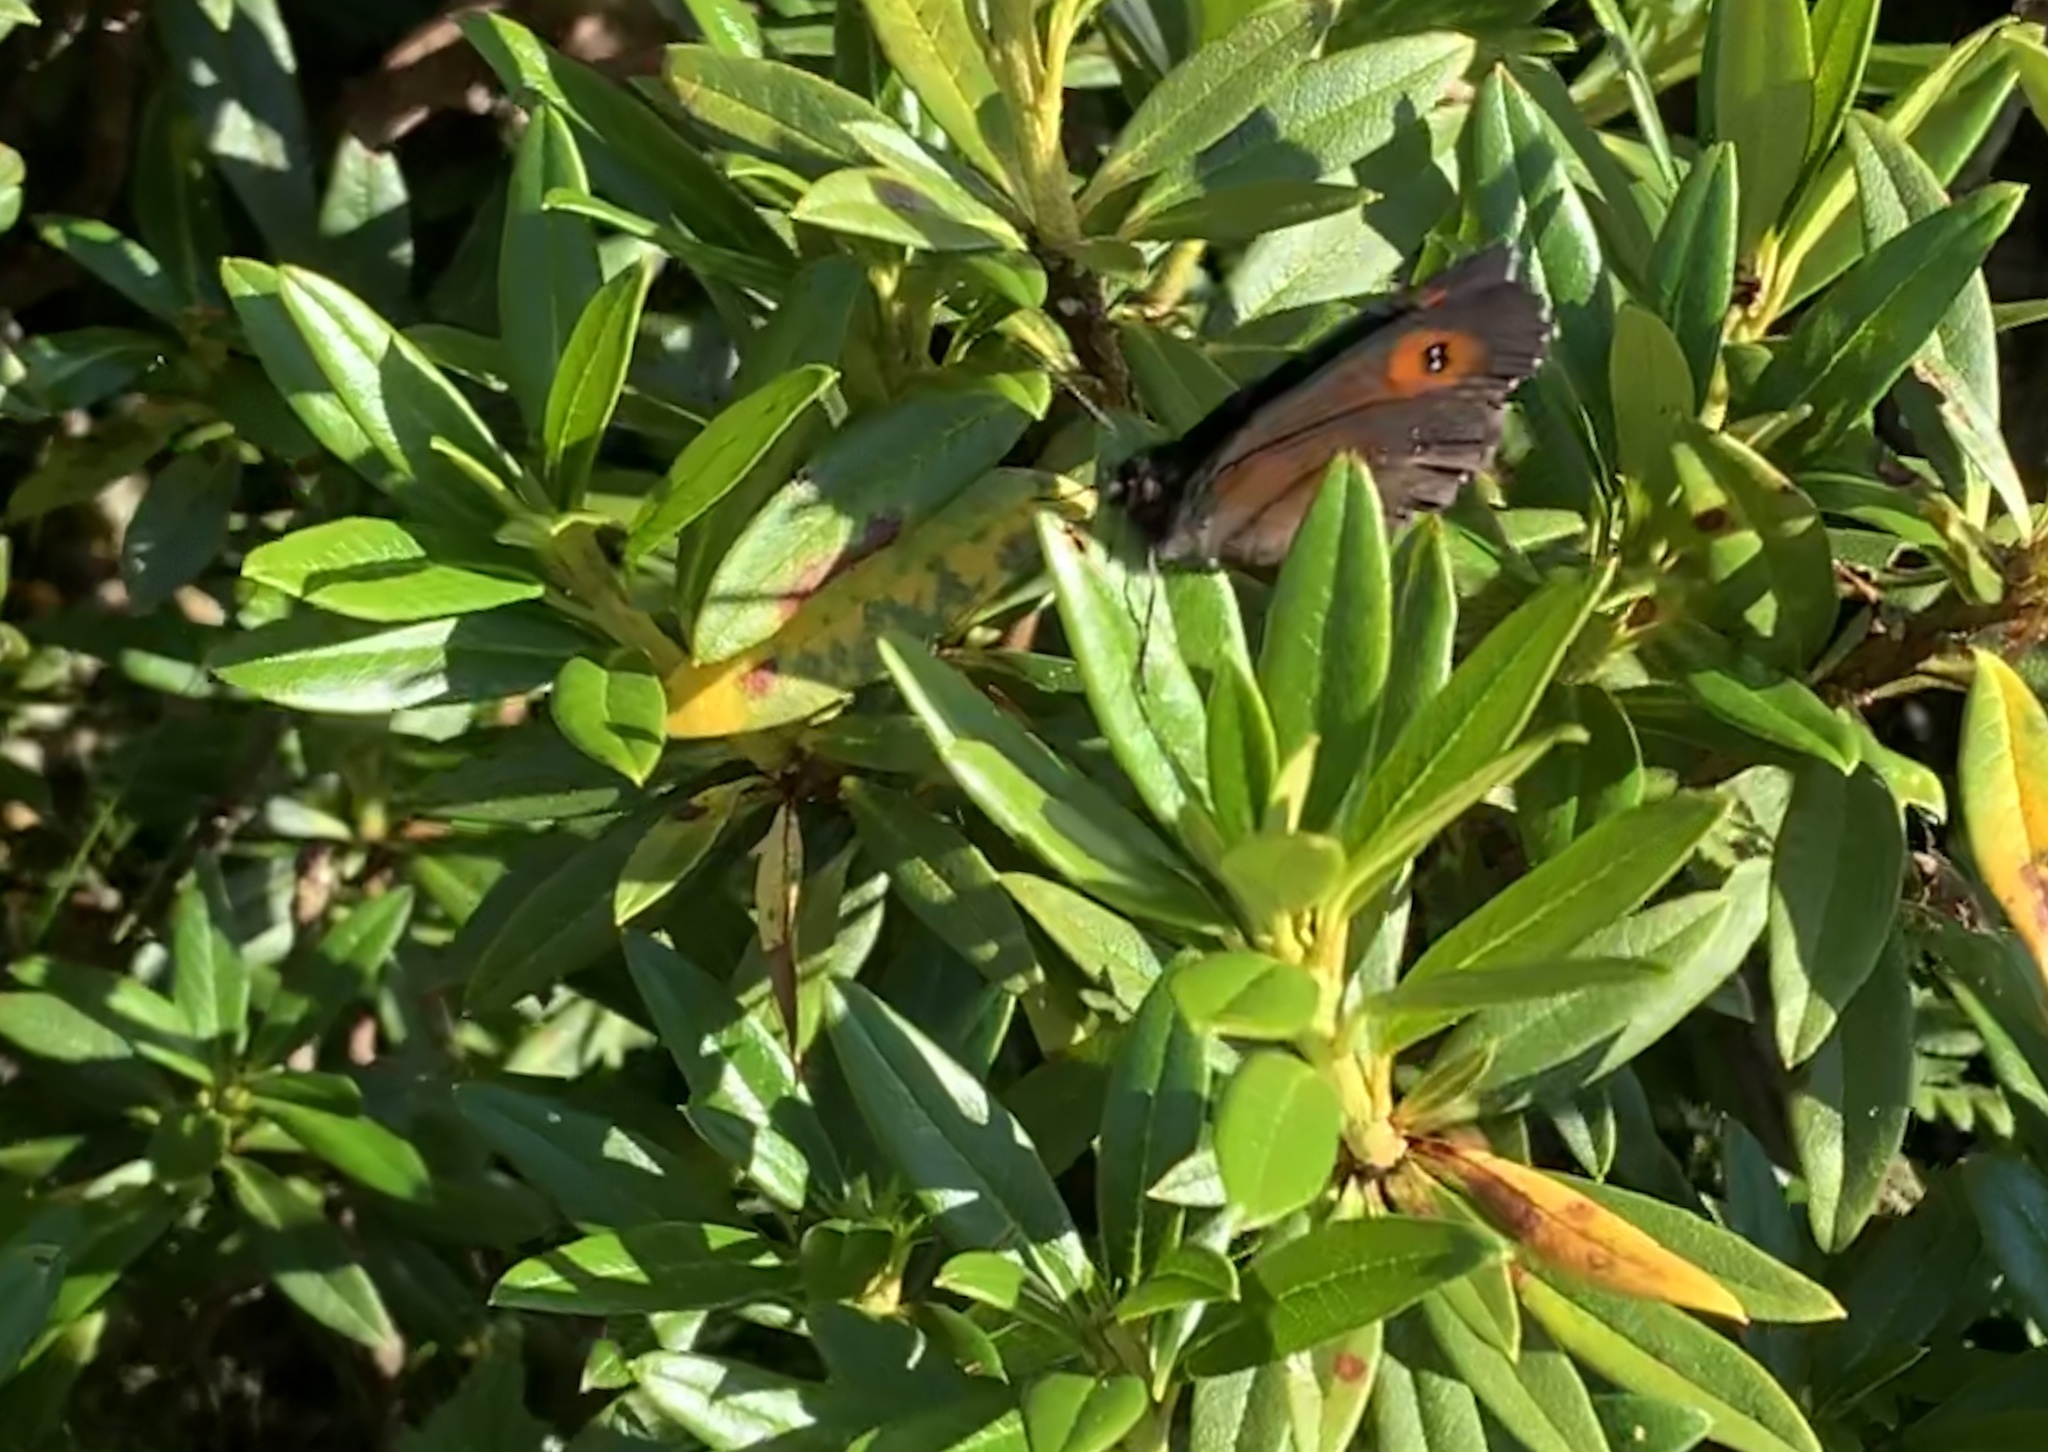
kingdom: Animalia
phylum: Arthropoda
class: Insecta
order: Lepidoptera
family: Nymphalidae
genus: Erebia
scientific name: Erebia euryale
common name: Large ringlet
